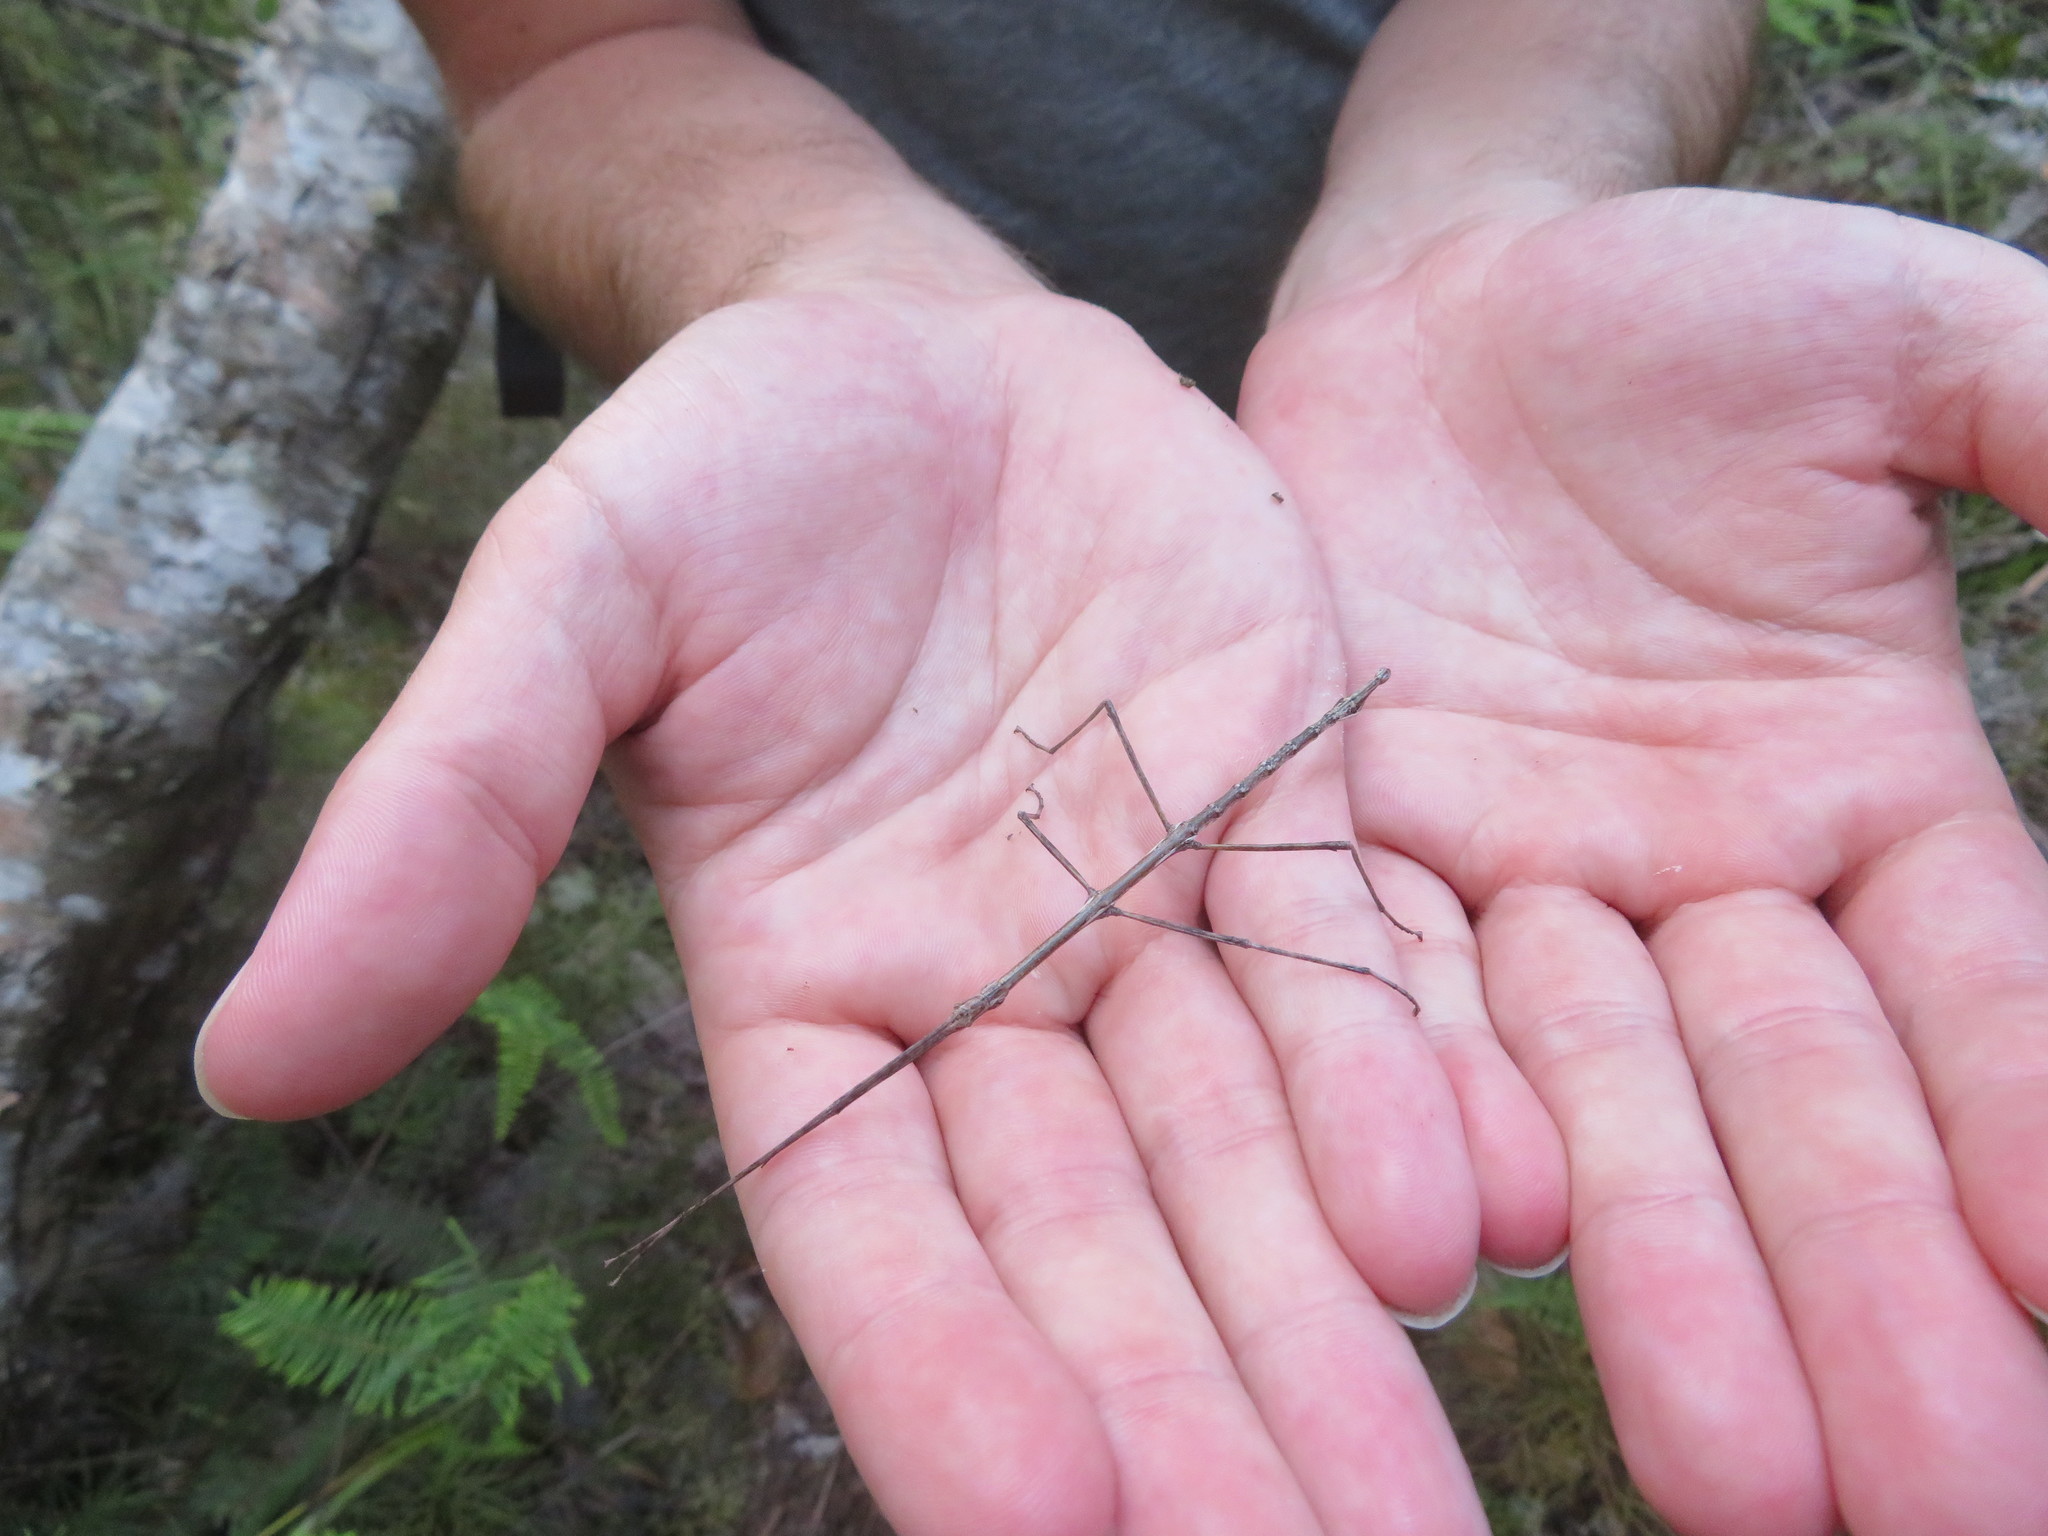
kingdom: Animalia
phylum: Arthropoda
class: Insecta
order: Phasmida
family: Phasmatidae
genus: Clitarchus
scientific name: Clitarchus hookeri
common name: Smooth stick insect
